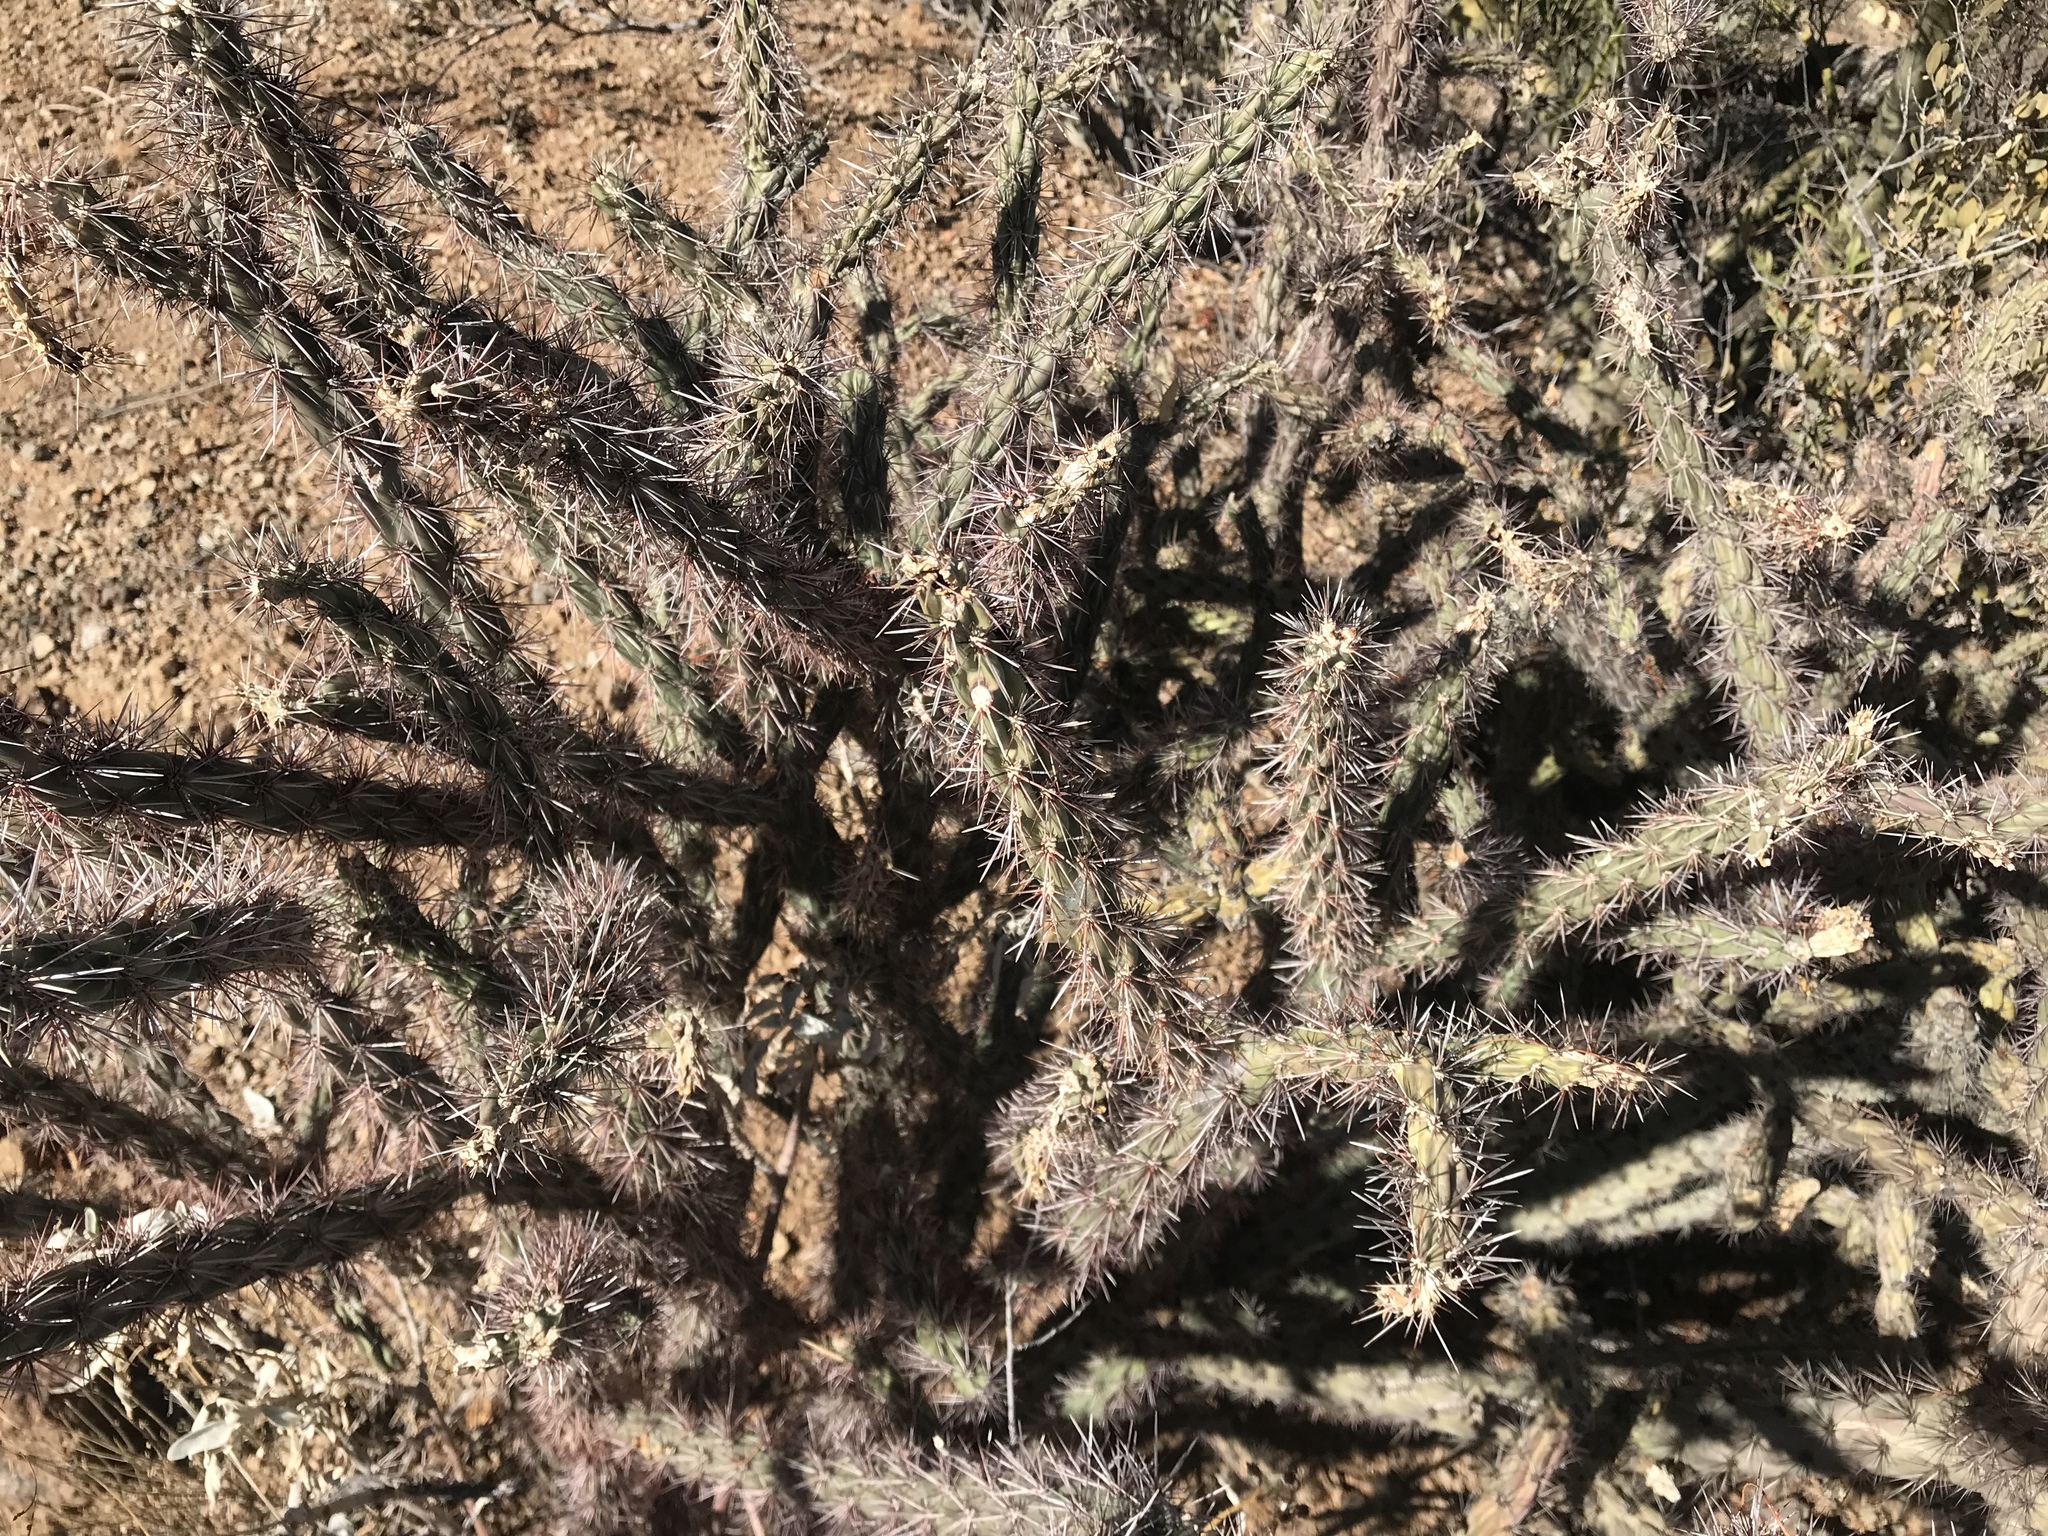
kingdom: Plantae
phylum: Tracheophyta
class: Magnoliopsida
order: Caryophyllales
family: Cactaceae
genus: Cylindropuntia
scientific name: Cylindropuntia acanthocarpa
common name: Buckhorn cholla
